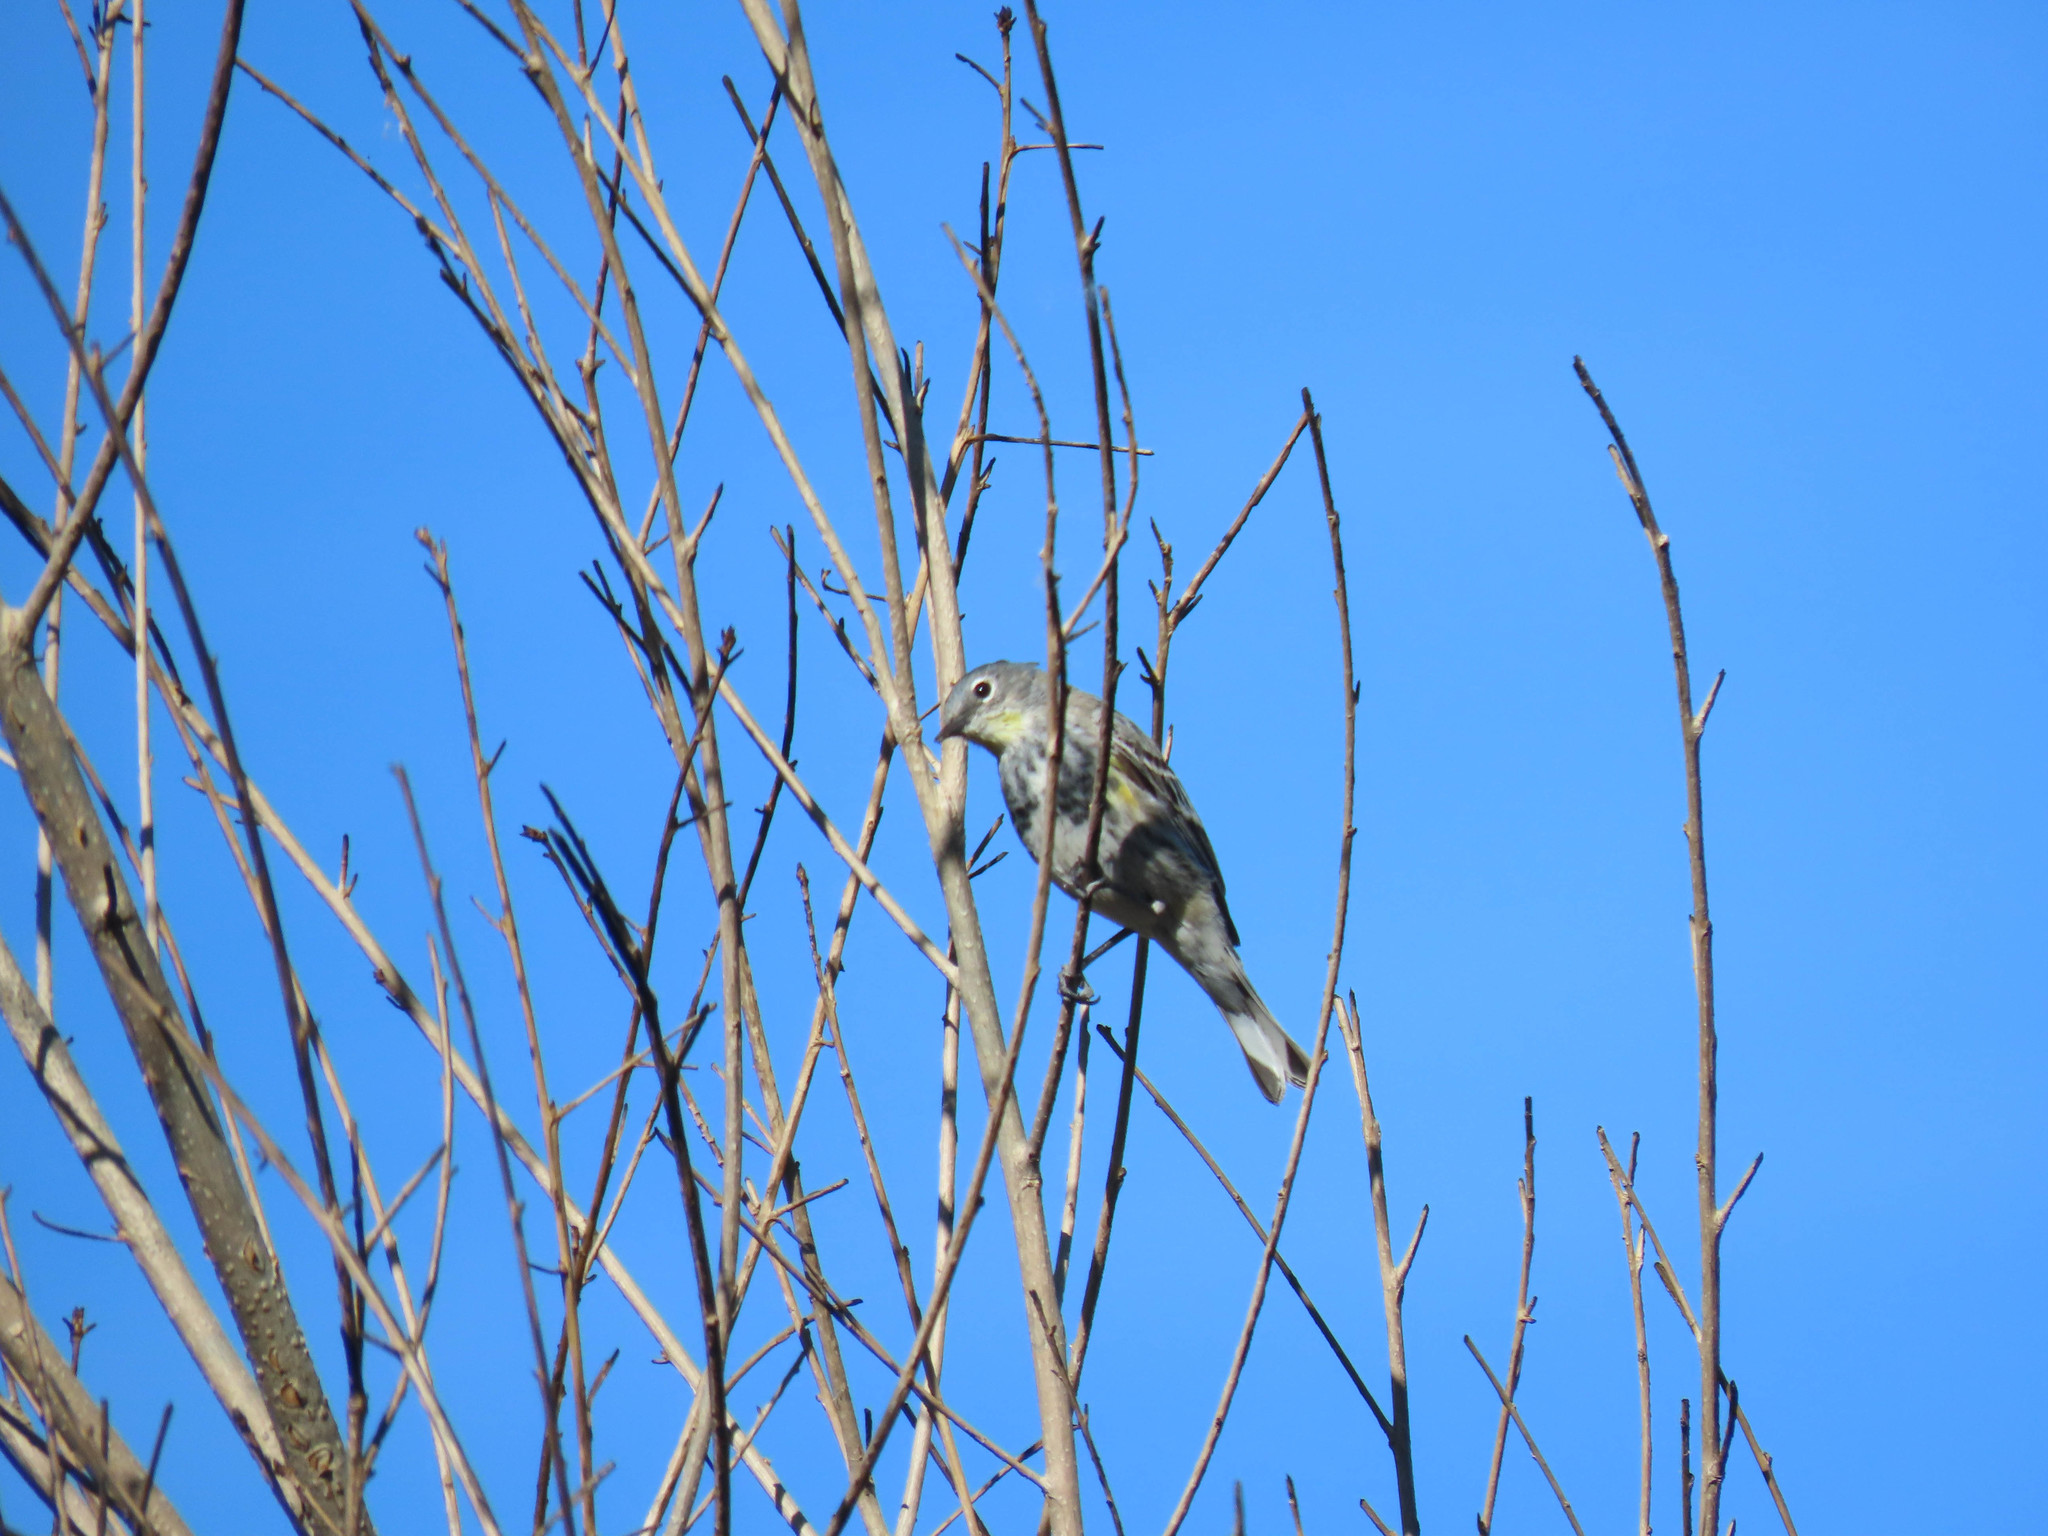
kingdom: Animalia
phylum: Chordata
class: Aves
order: Passeriformes
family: Parulidae
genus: Setophaga
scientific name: Setophaga auduboni
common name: Audubon's warbler
